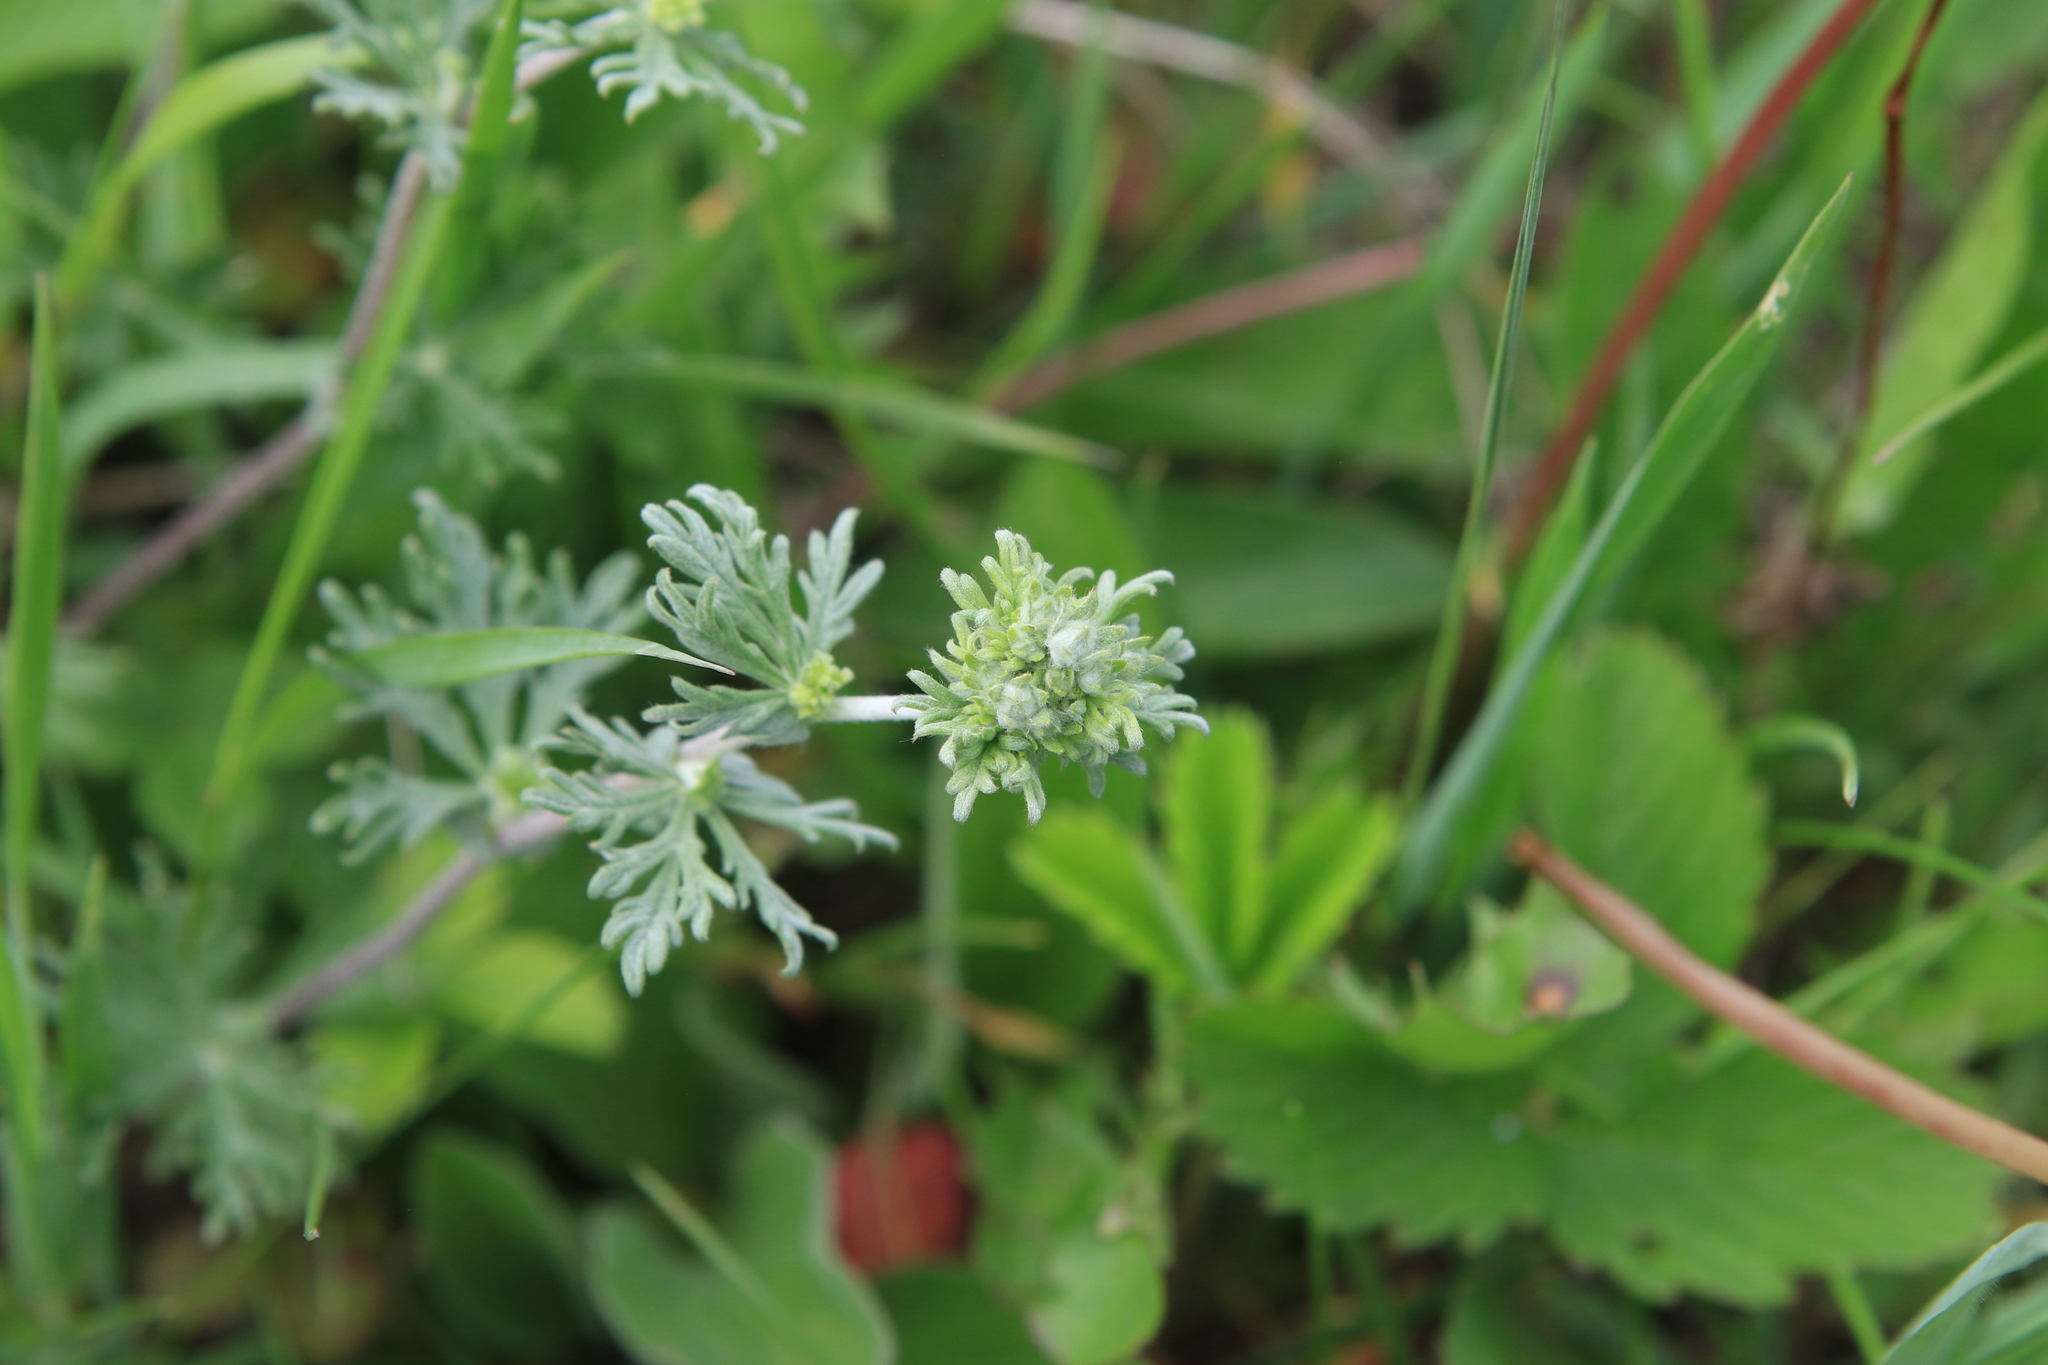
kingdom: Plantae
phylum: Tracheophyta
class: Magnoliopsida
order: Rosales
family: Rosaceae
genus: Potentilla
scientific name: Potentilla argentea
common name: Hoary cinquefoil
